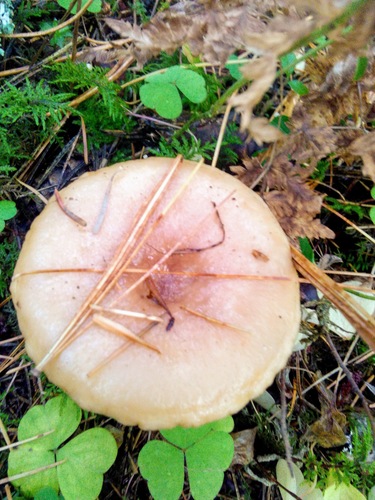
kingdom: Fungi
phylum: Basidiomycota
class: Agaricomycetes
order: Russulales
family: Russulaceae
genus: Lactarius
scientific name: Lactarius utilis
